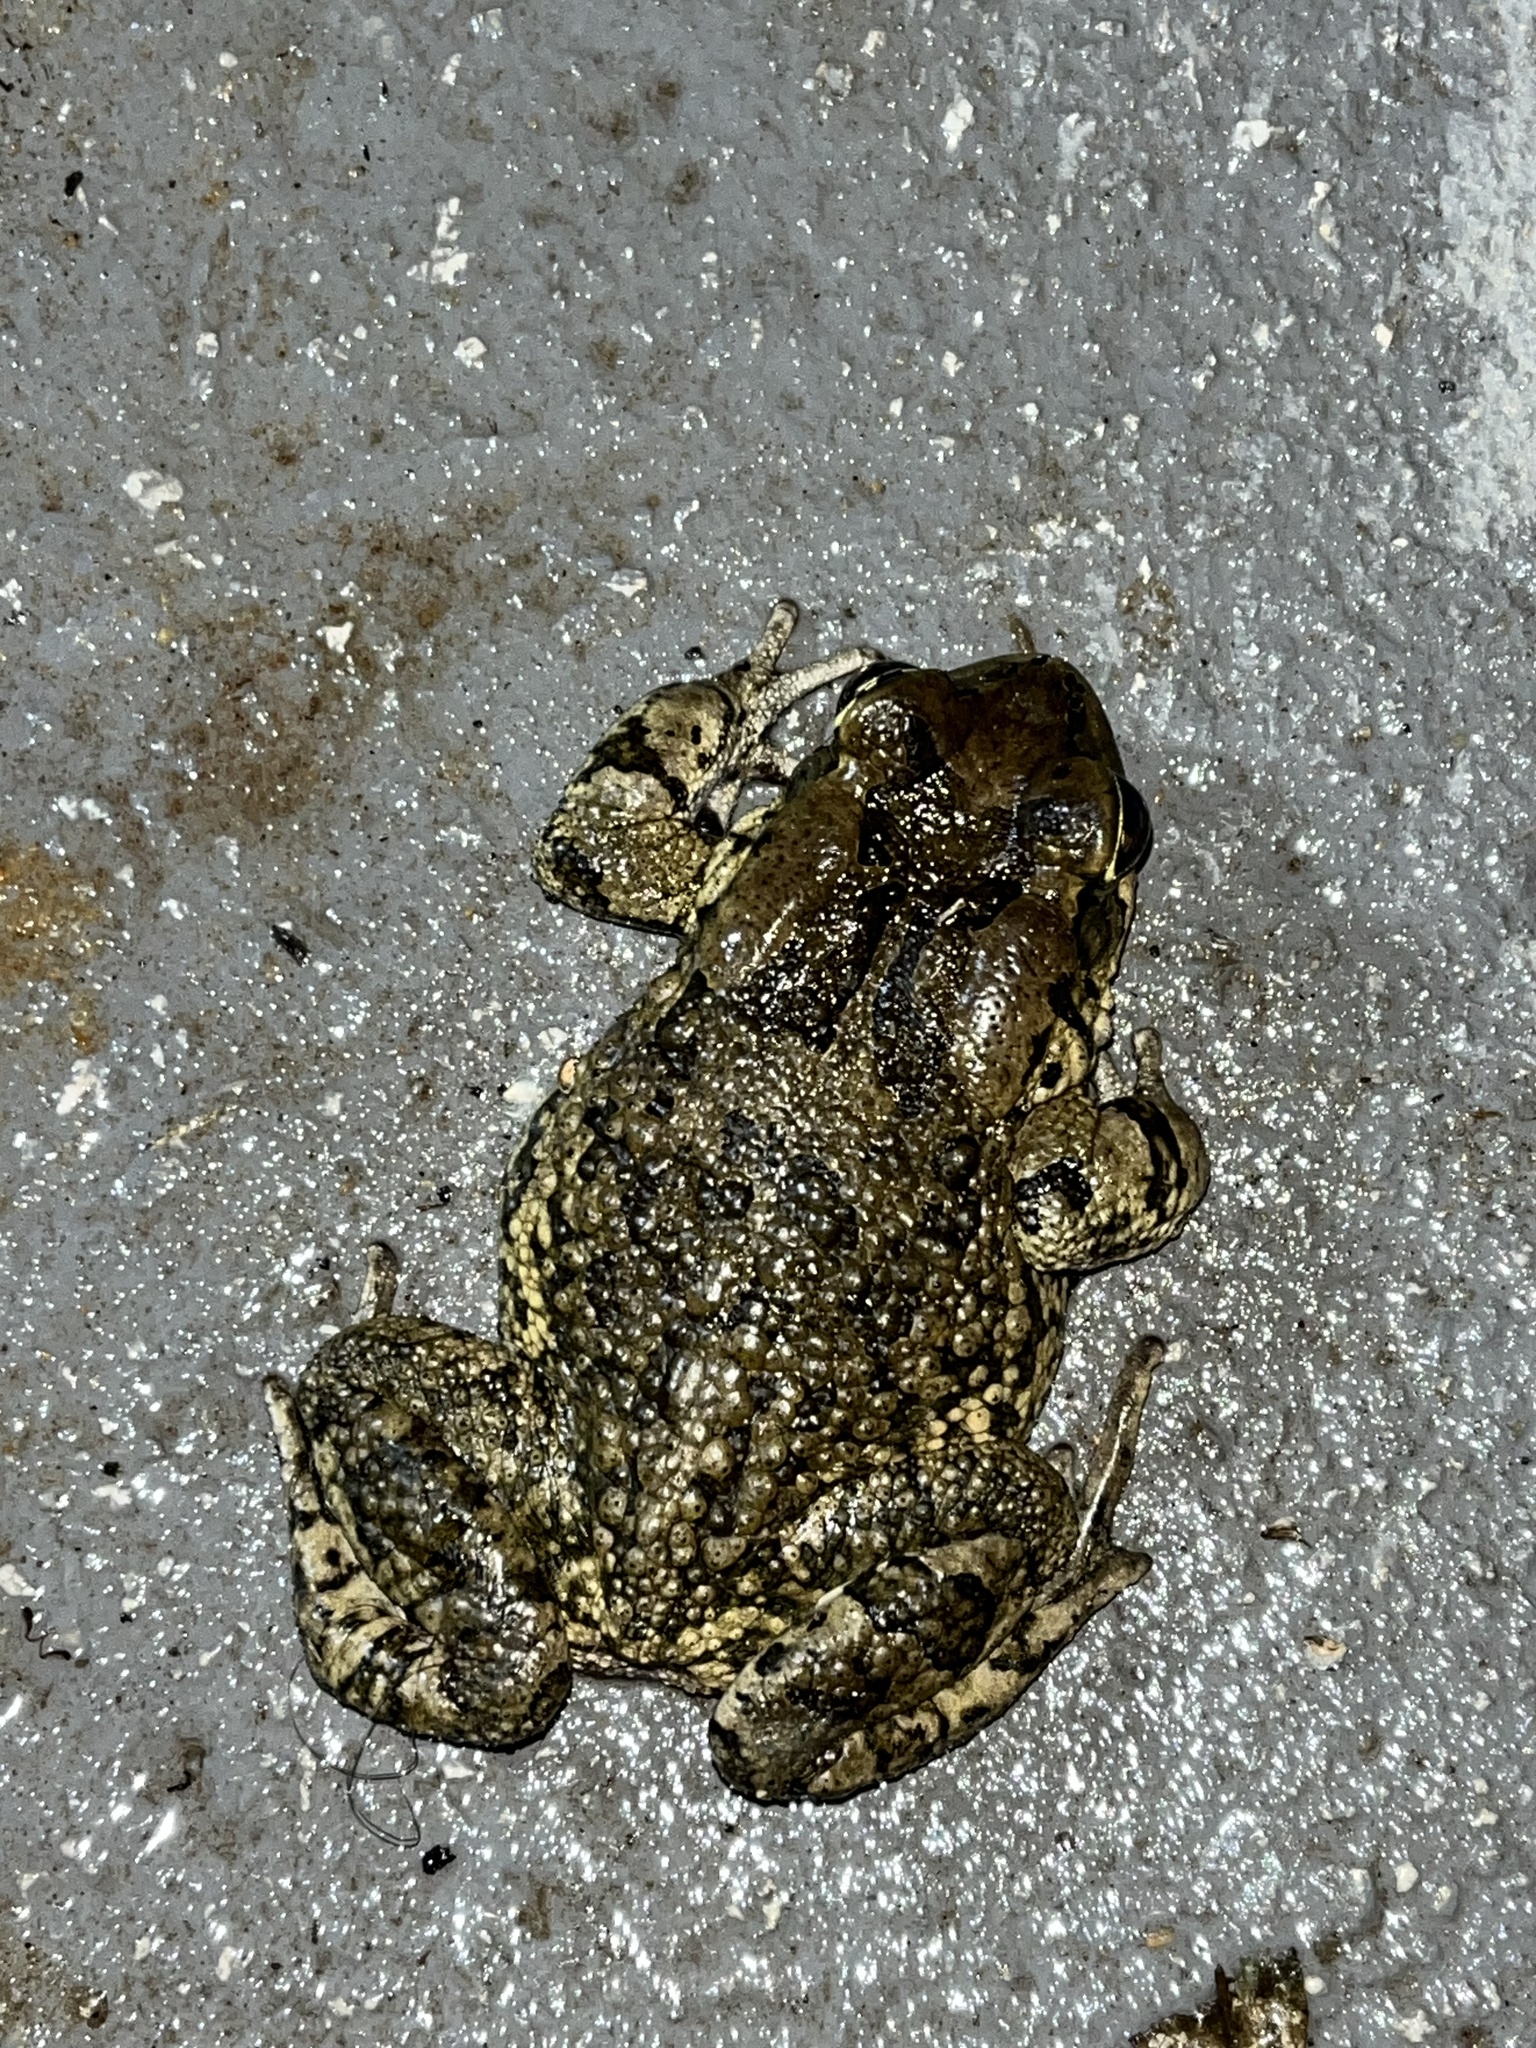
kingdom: Animalia
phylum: Chordata
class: Amphibia
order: Anura
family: Bufonidae
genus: Sclerophrys
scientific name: Sclerophrys capensis
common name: Ranger’s toad
